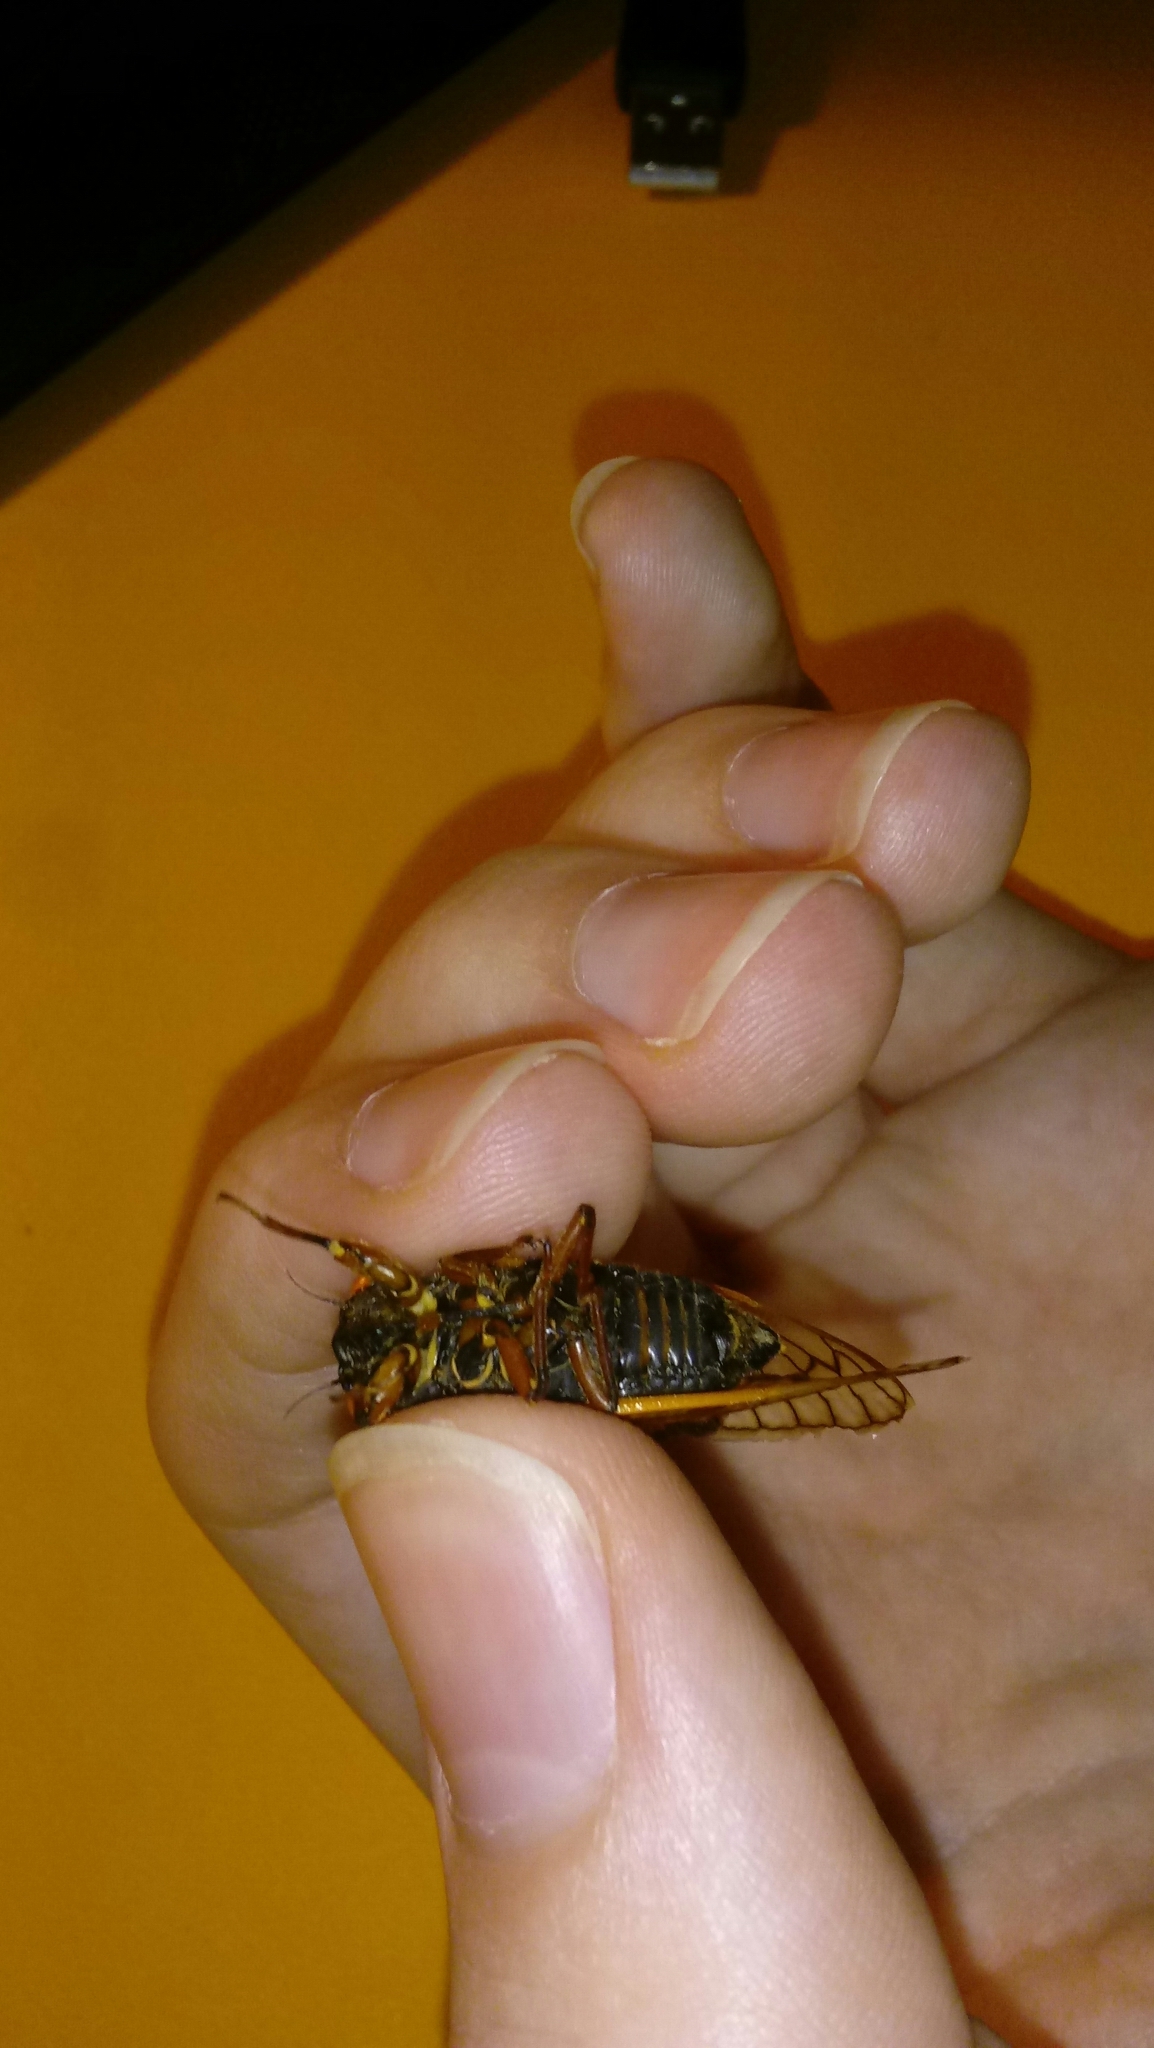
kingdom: Animalia
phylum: Arthropoda
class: Insecta
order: Hemiptera
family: Cicadidae
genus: Magicicada
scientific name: Magicicada septendecula
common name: Decula periodical cicada
